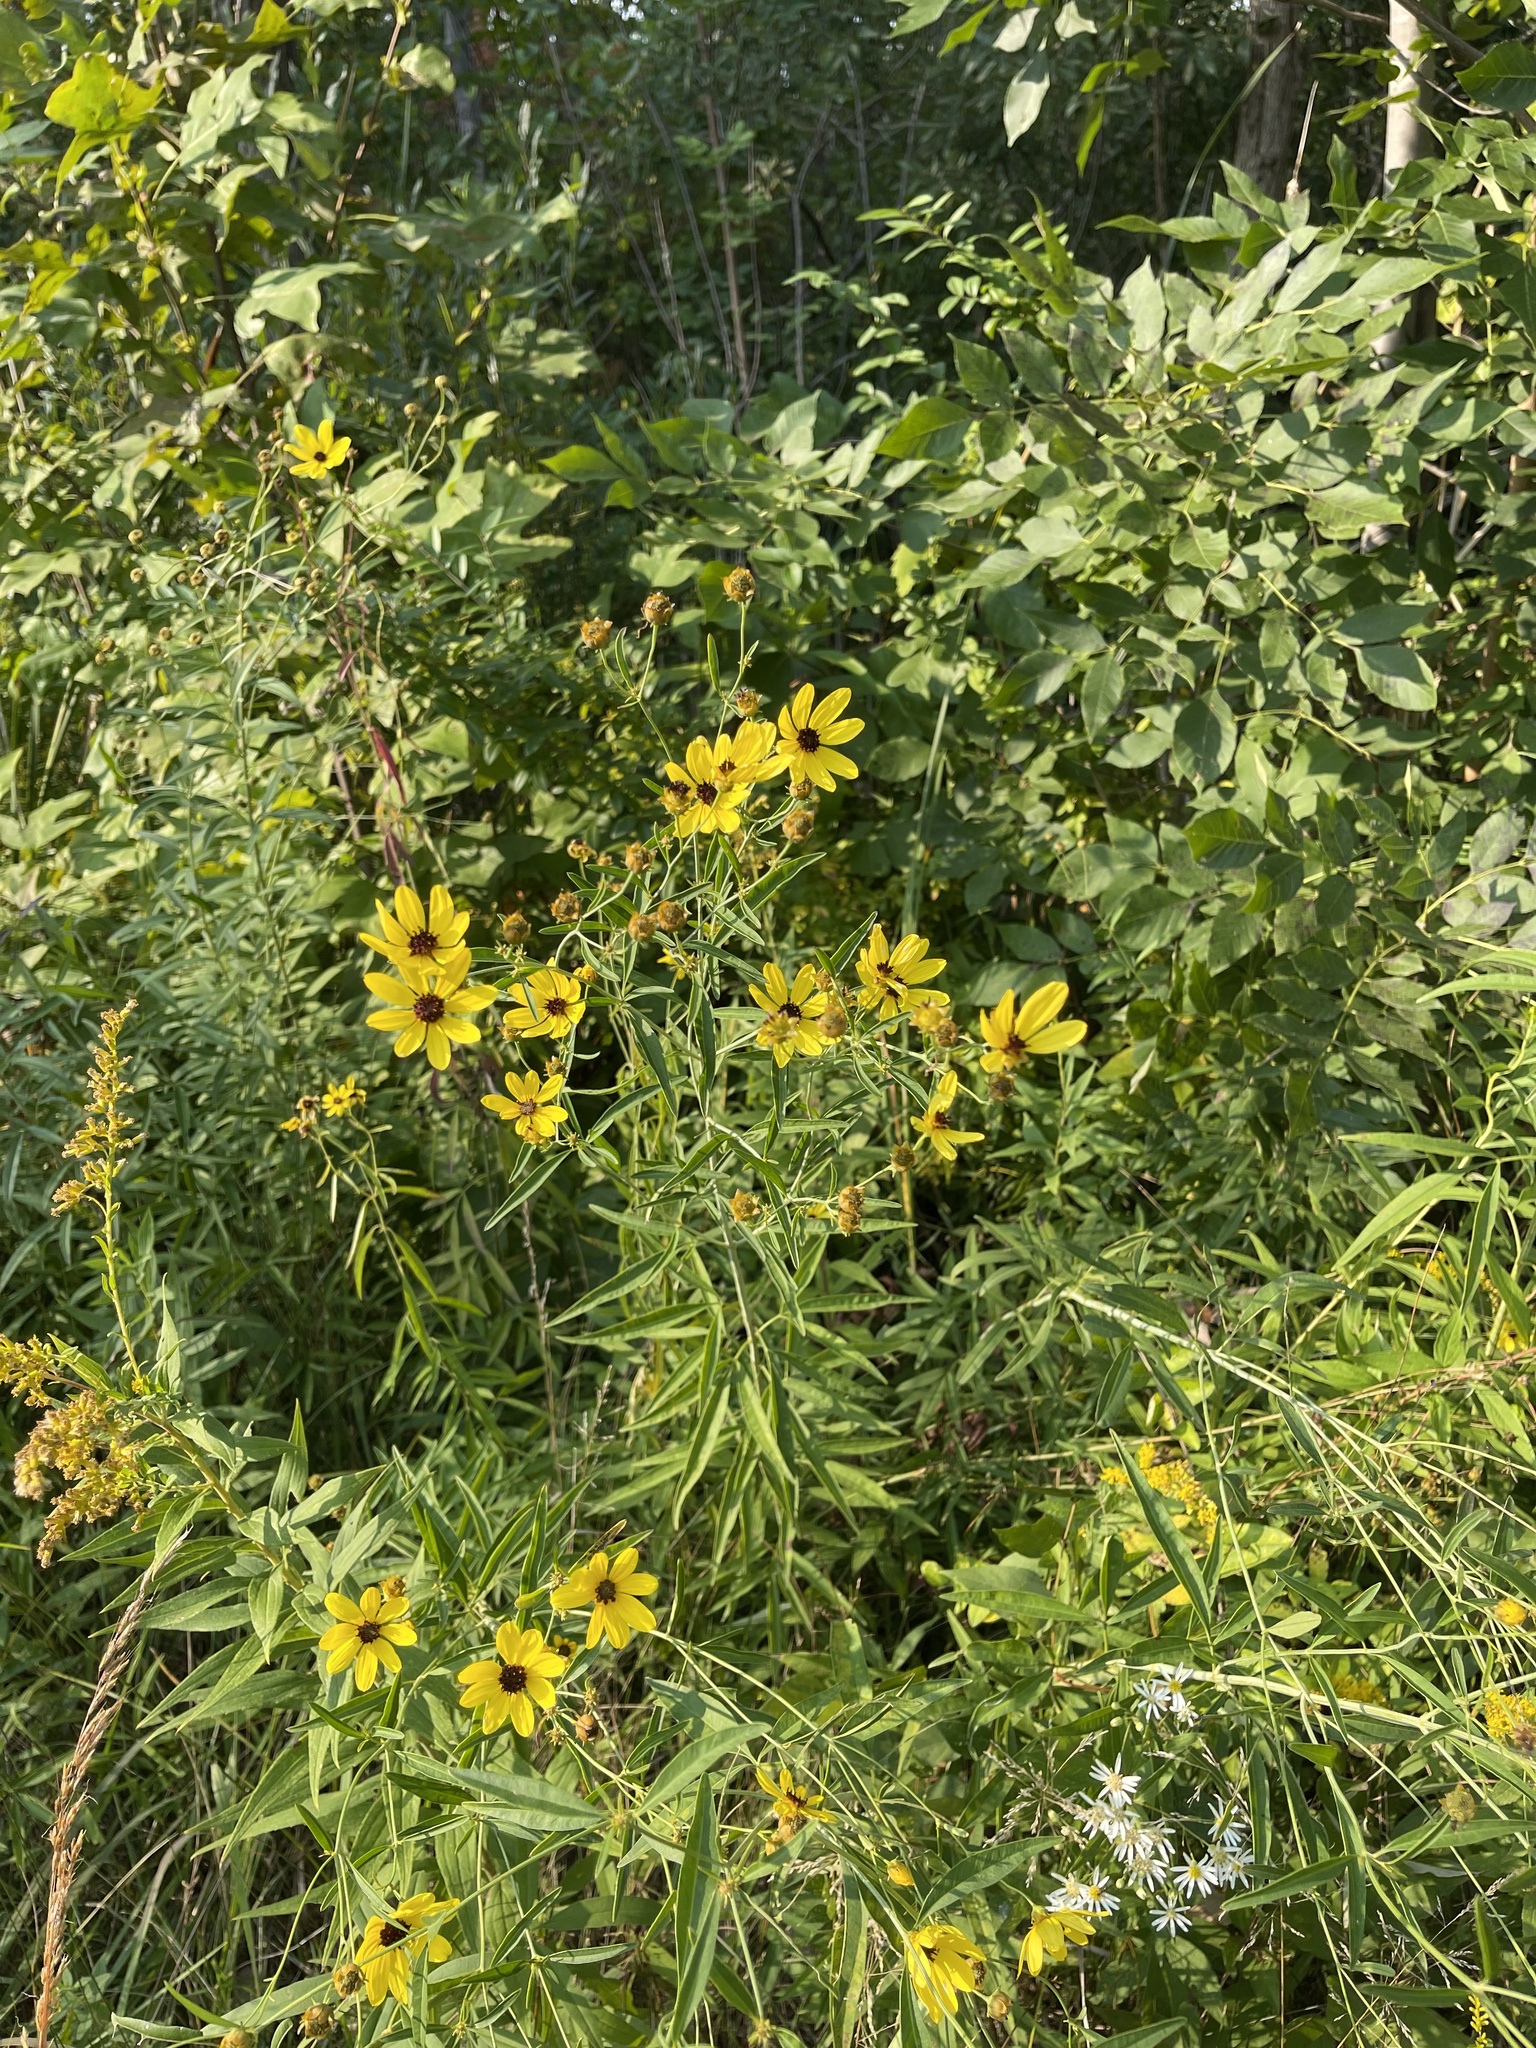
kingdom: Plantae
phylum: Tracheophyta
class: Magnoliopsida
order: Asterales
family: Asteraceae
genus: Coreopsis
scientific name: Coreopsis tripteris
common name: Tall coreopsis
